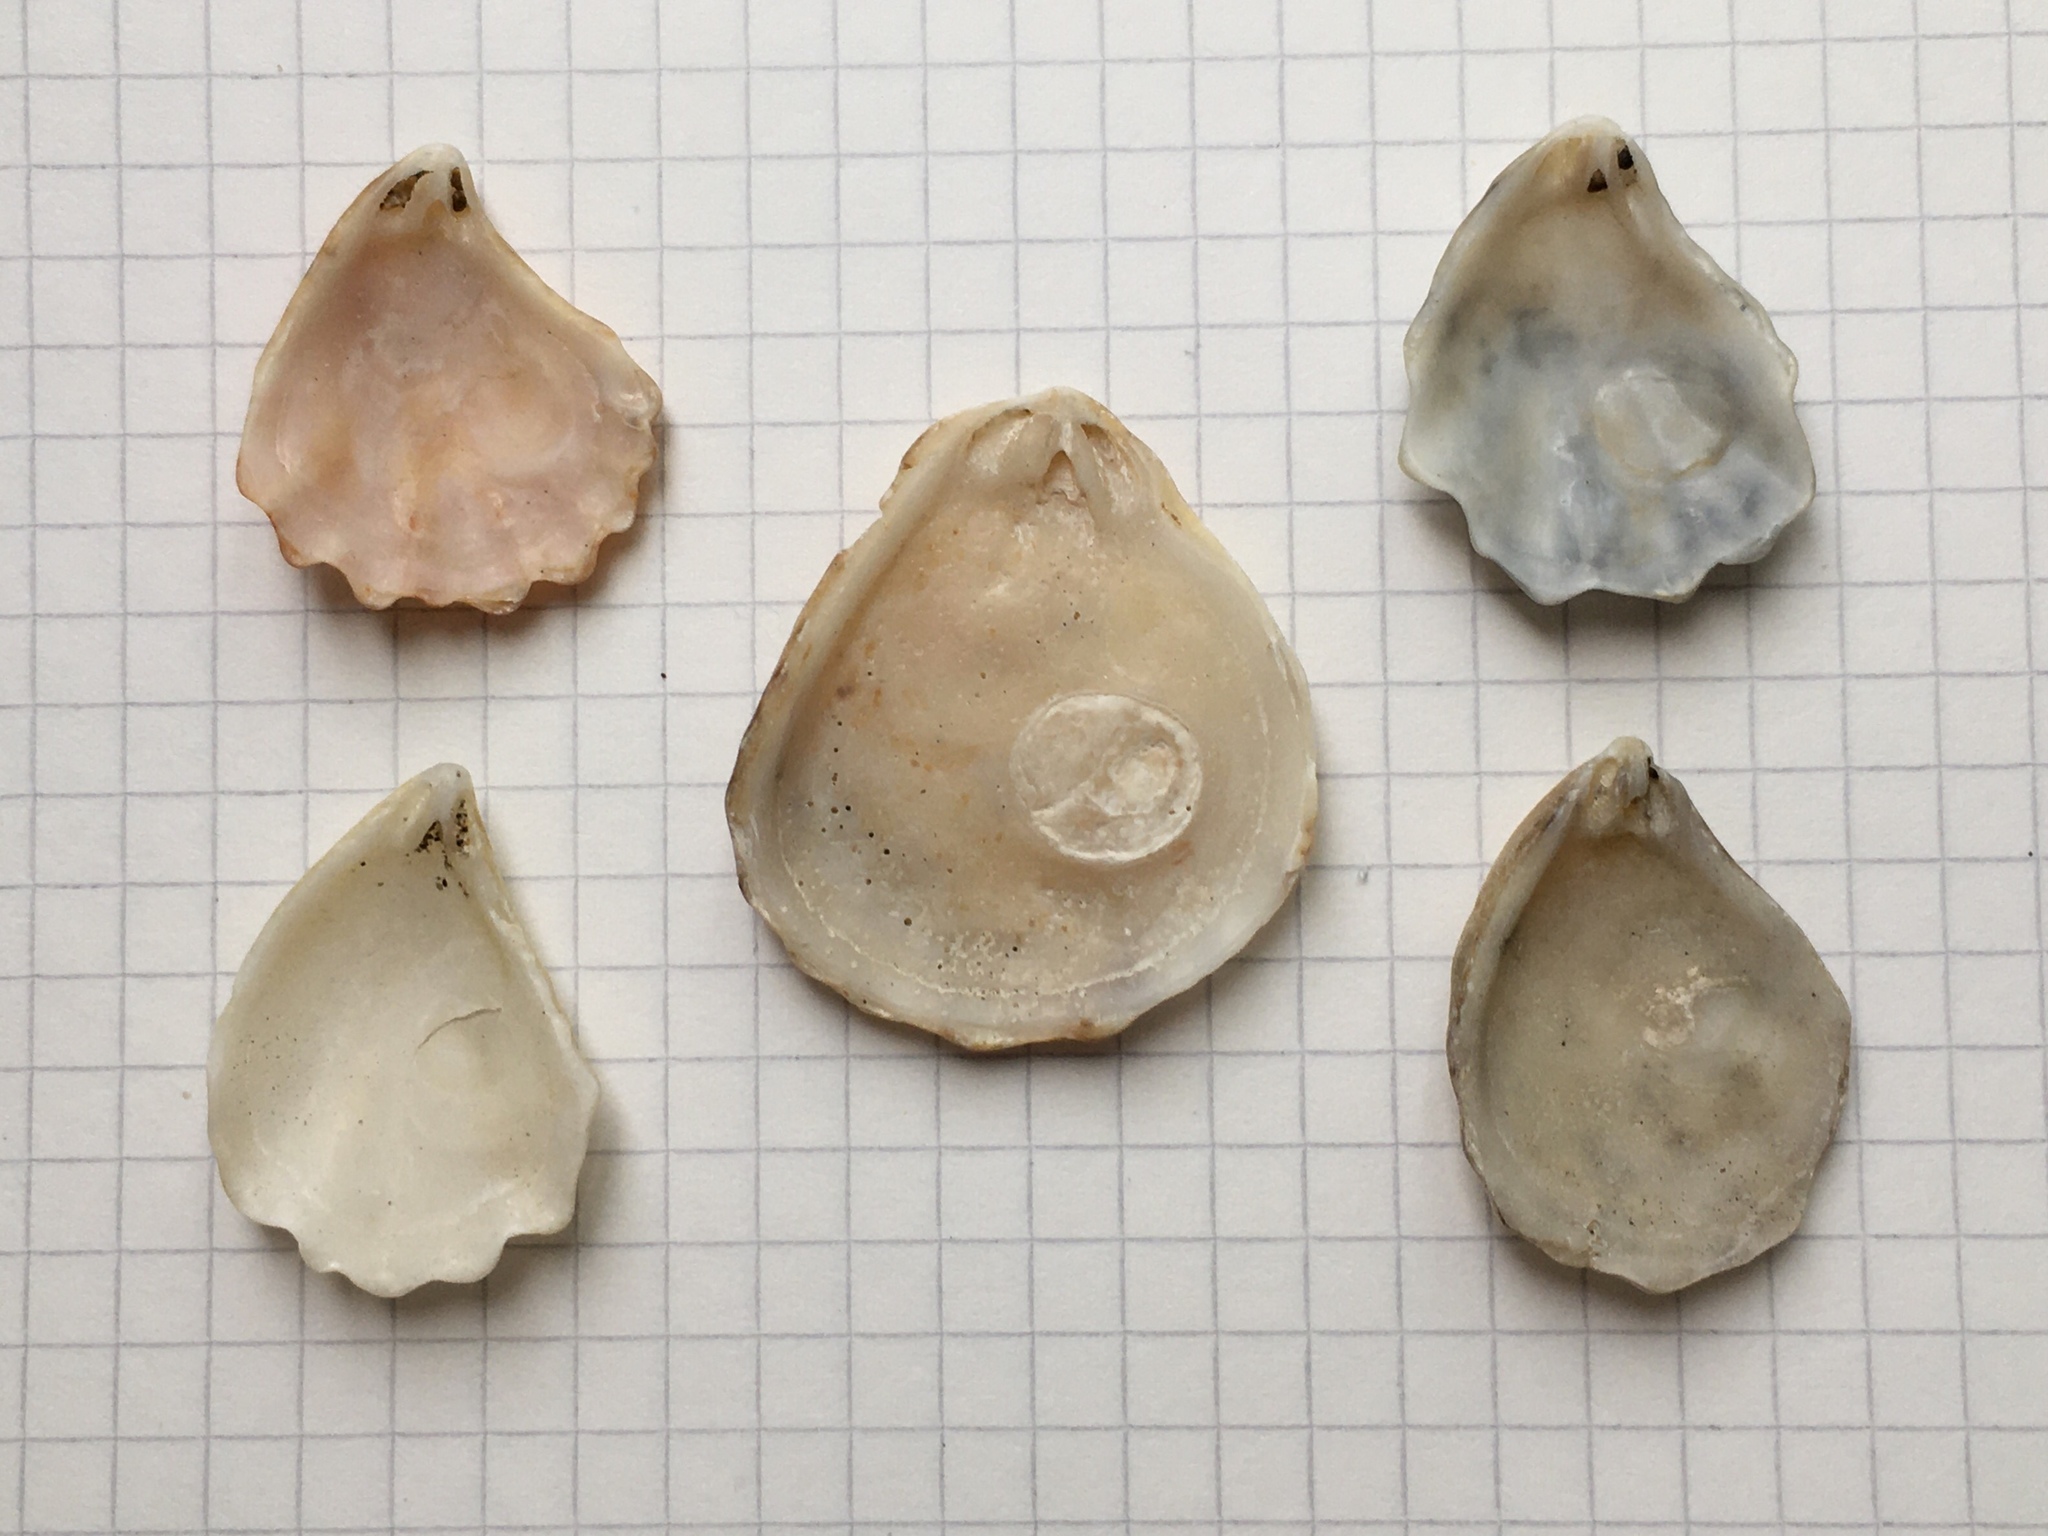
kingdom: Animalia
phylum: Mollusca
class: Bivalvia
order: Pectinida
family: Plicatulidae
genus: Plicatula
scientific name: Plicatula gibbosa
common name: Atlantic kitten's paw
